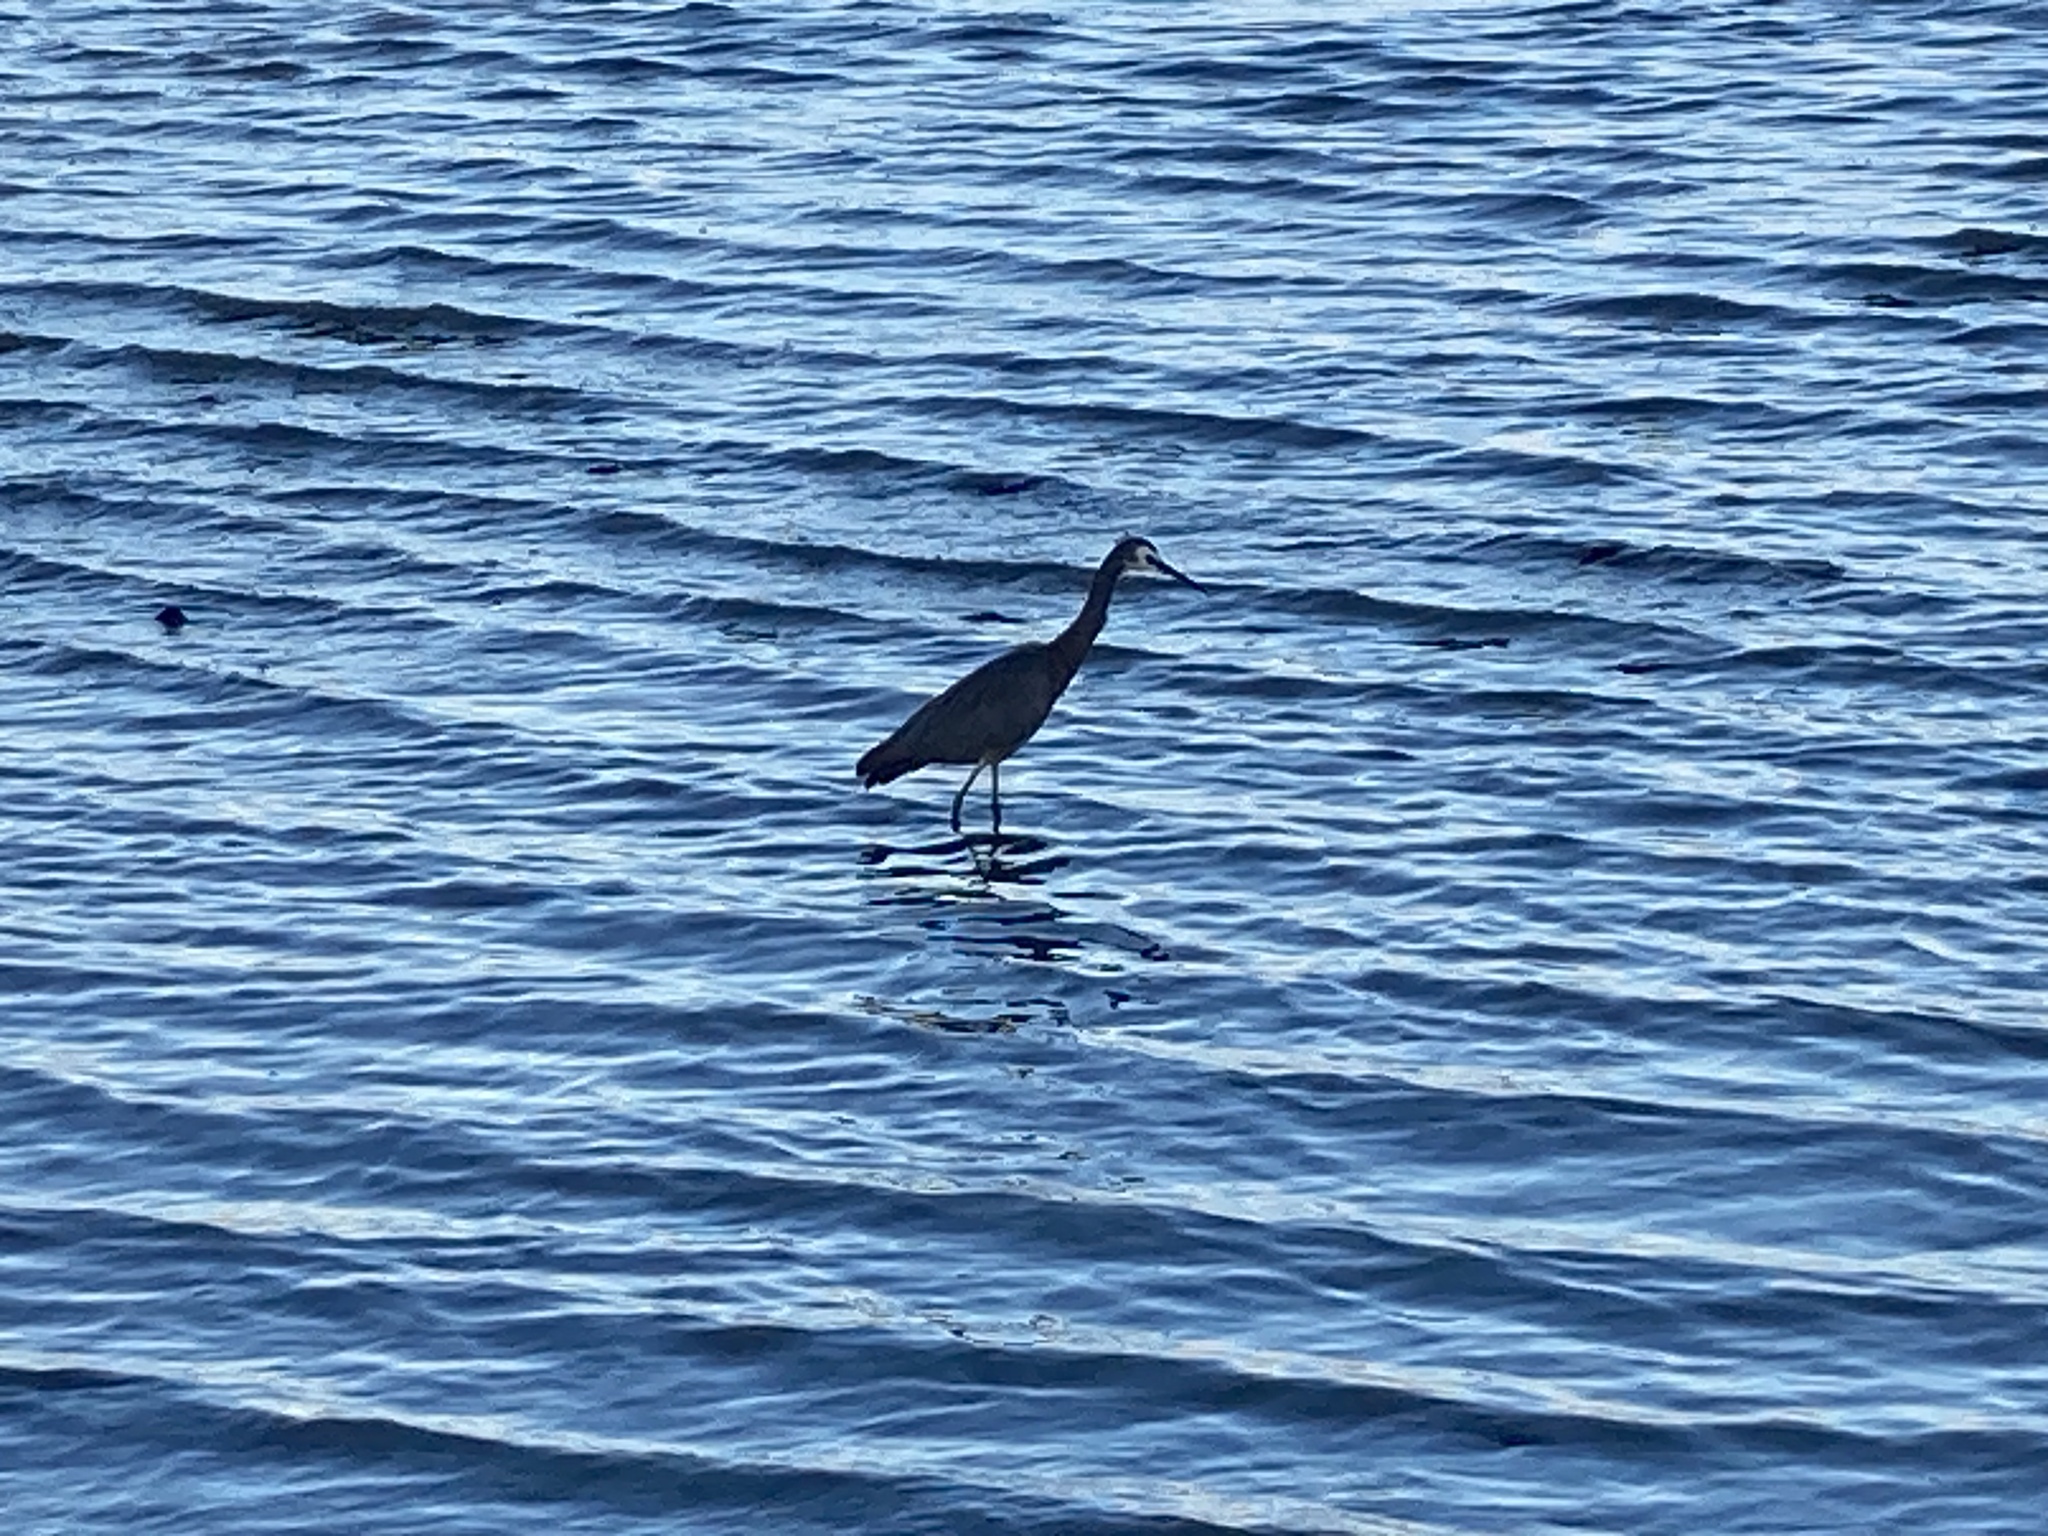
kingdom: Animalia
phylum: Chordata
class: Aves
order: Pelecaniformes
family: Ardeidae
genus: Egretta
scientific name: Egretta novaehollandiae
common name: White-faced heron
